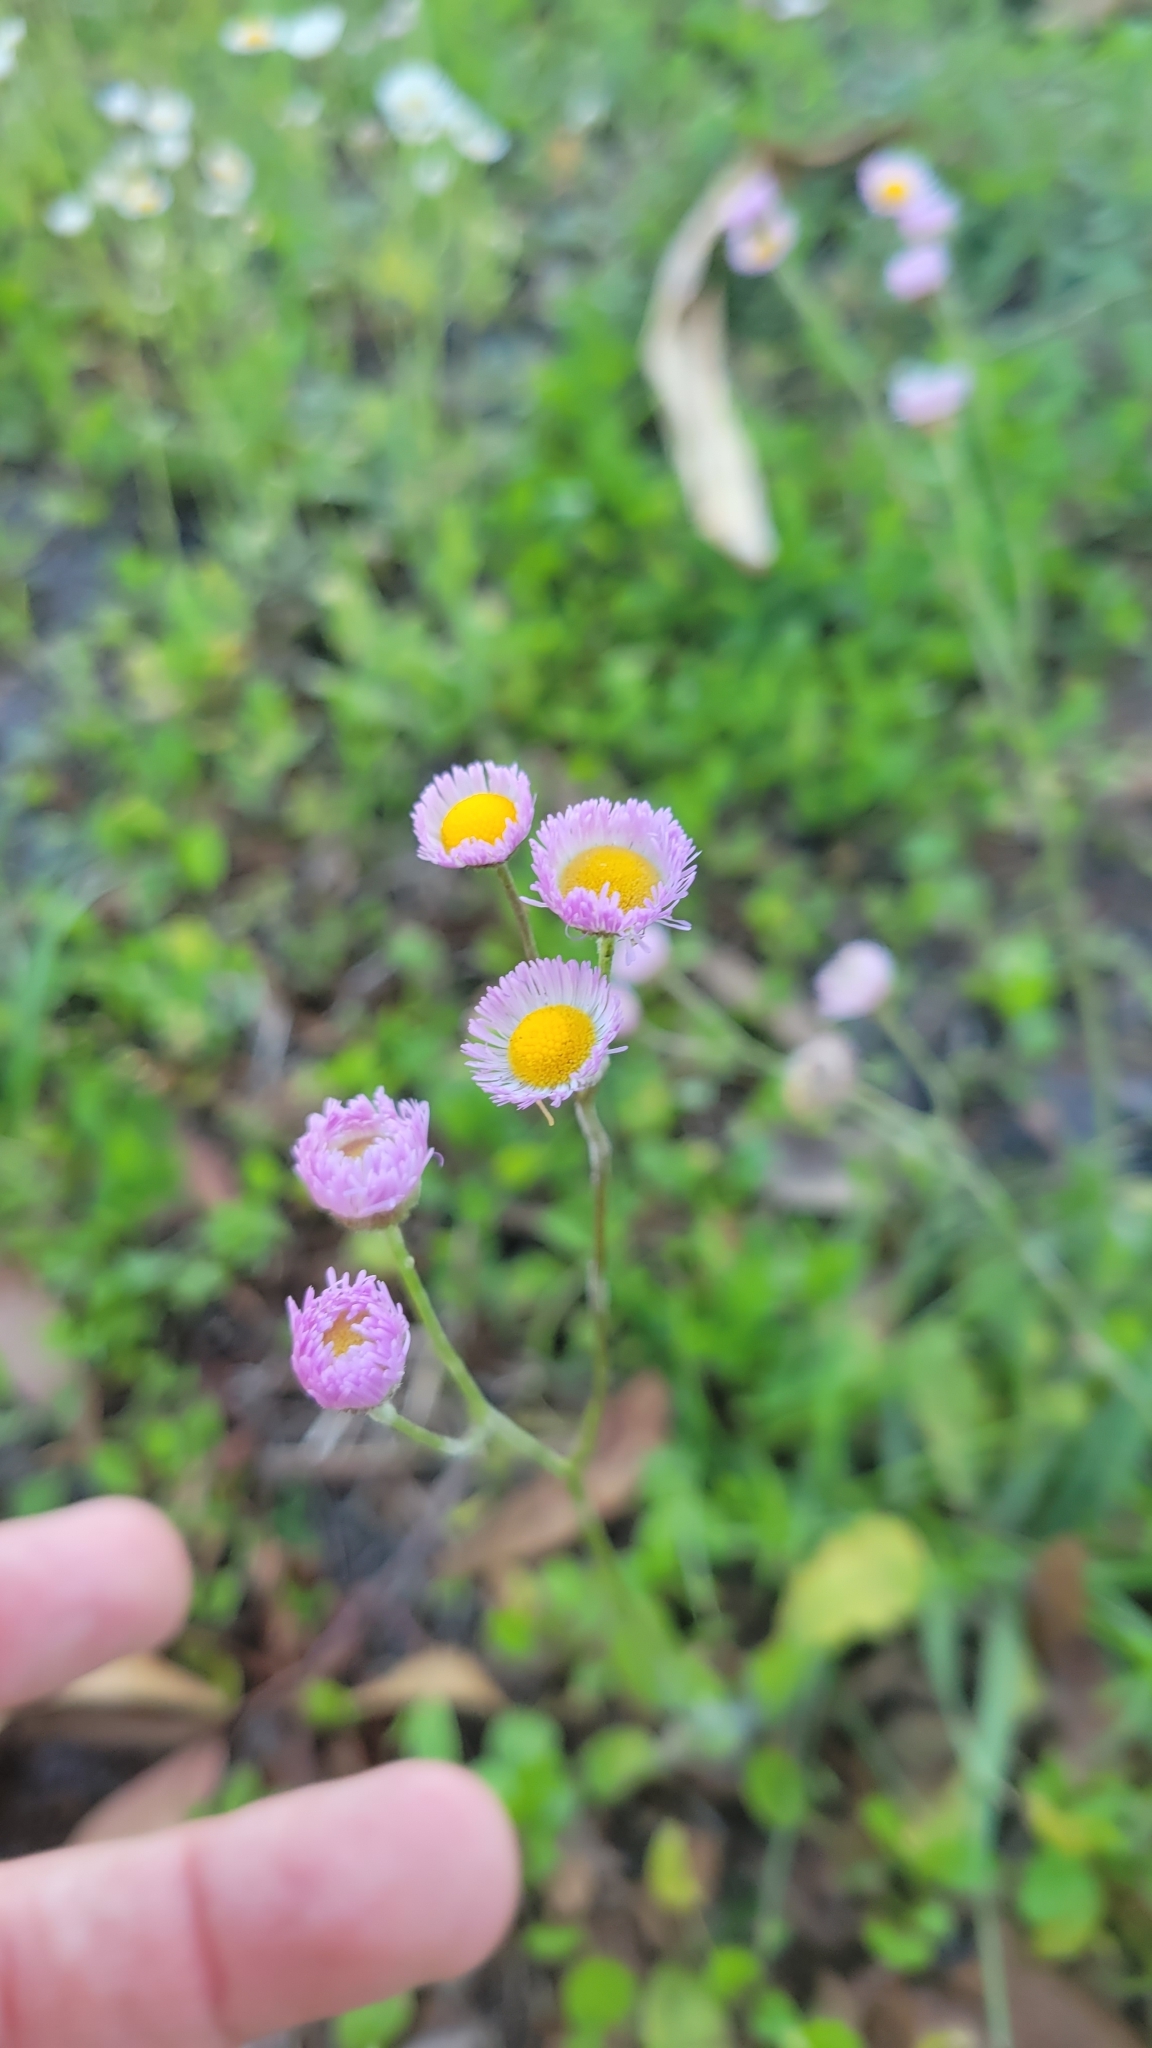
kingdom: Plantae
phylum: Tracheophyta
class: Magnoliopsida
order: Asterales
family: Asteraceae
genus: Erigeron
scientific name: Erigeron quercifolius
